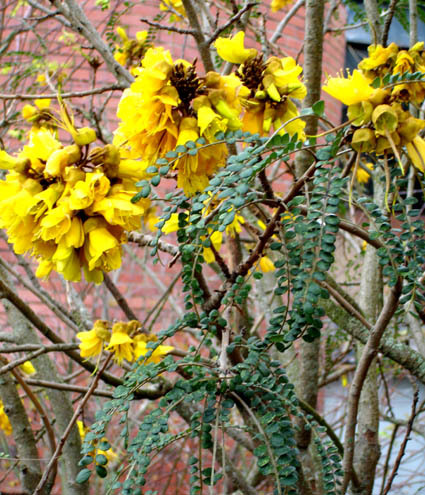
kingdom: Plantae
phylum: Tracheophyta
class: Magnoliopsida
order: Fabales
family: Fabaceae
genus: Sophora
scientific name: Sophora cassioides
